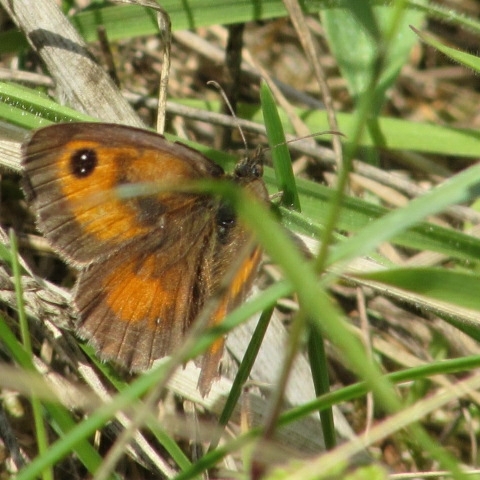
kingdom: Animalia
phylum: Arthropoda
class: Insecta
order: Lepidoptera
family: Nymphalidae
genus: Pyronia
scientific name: Pyronia tithonus
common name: Gatekeeper
